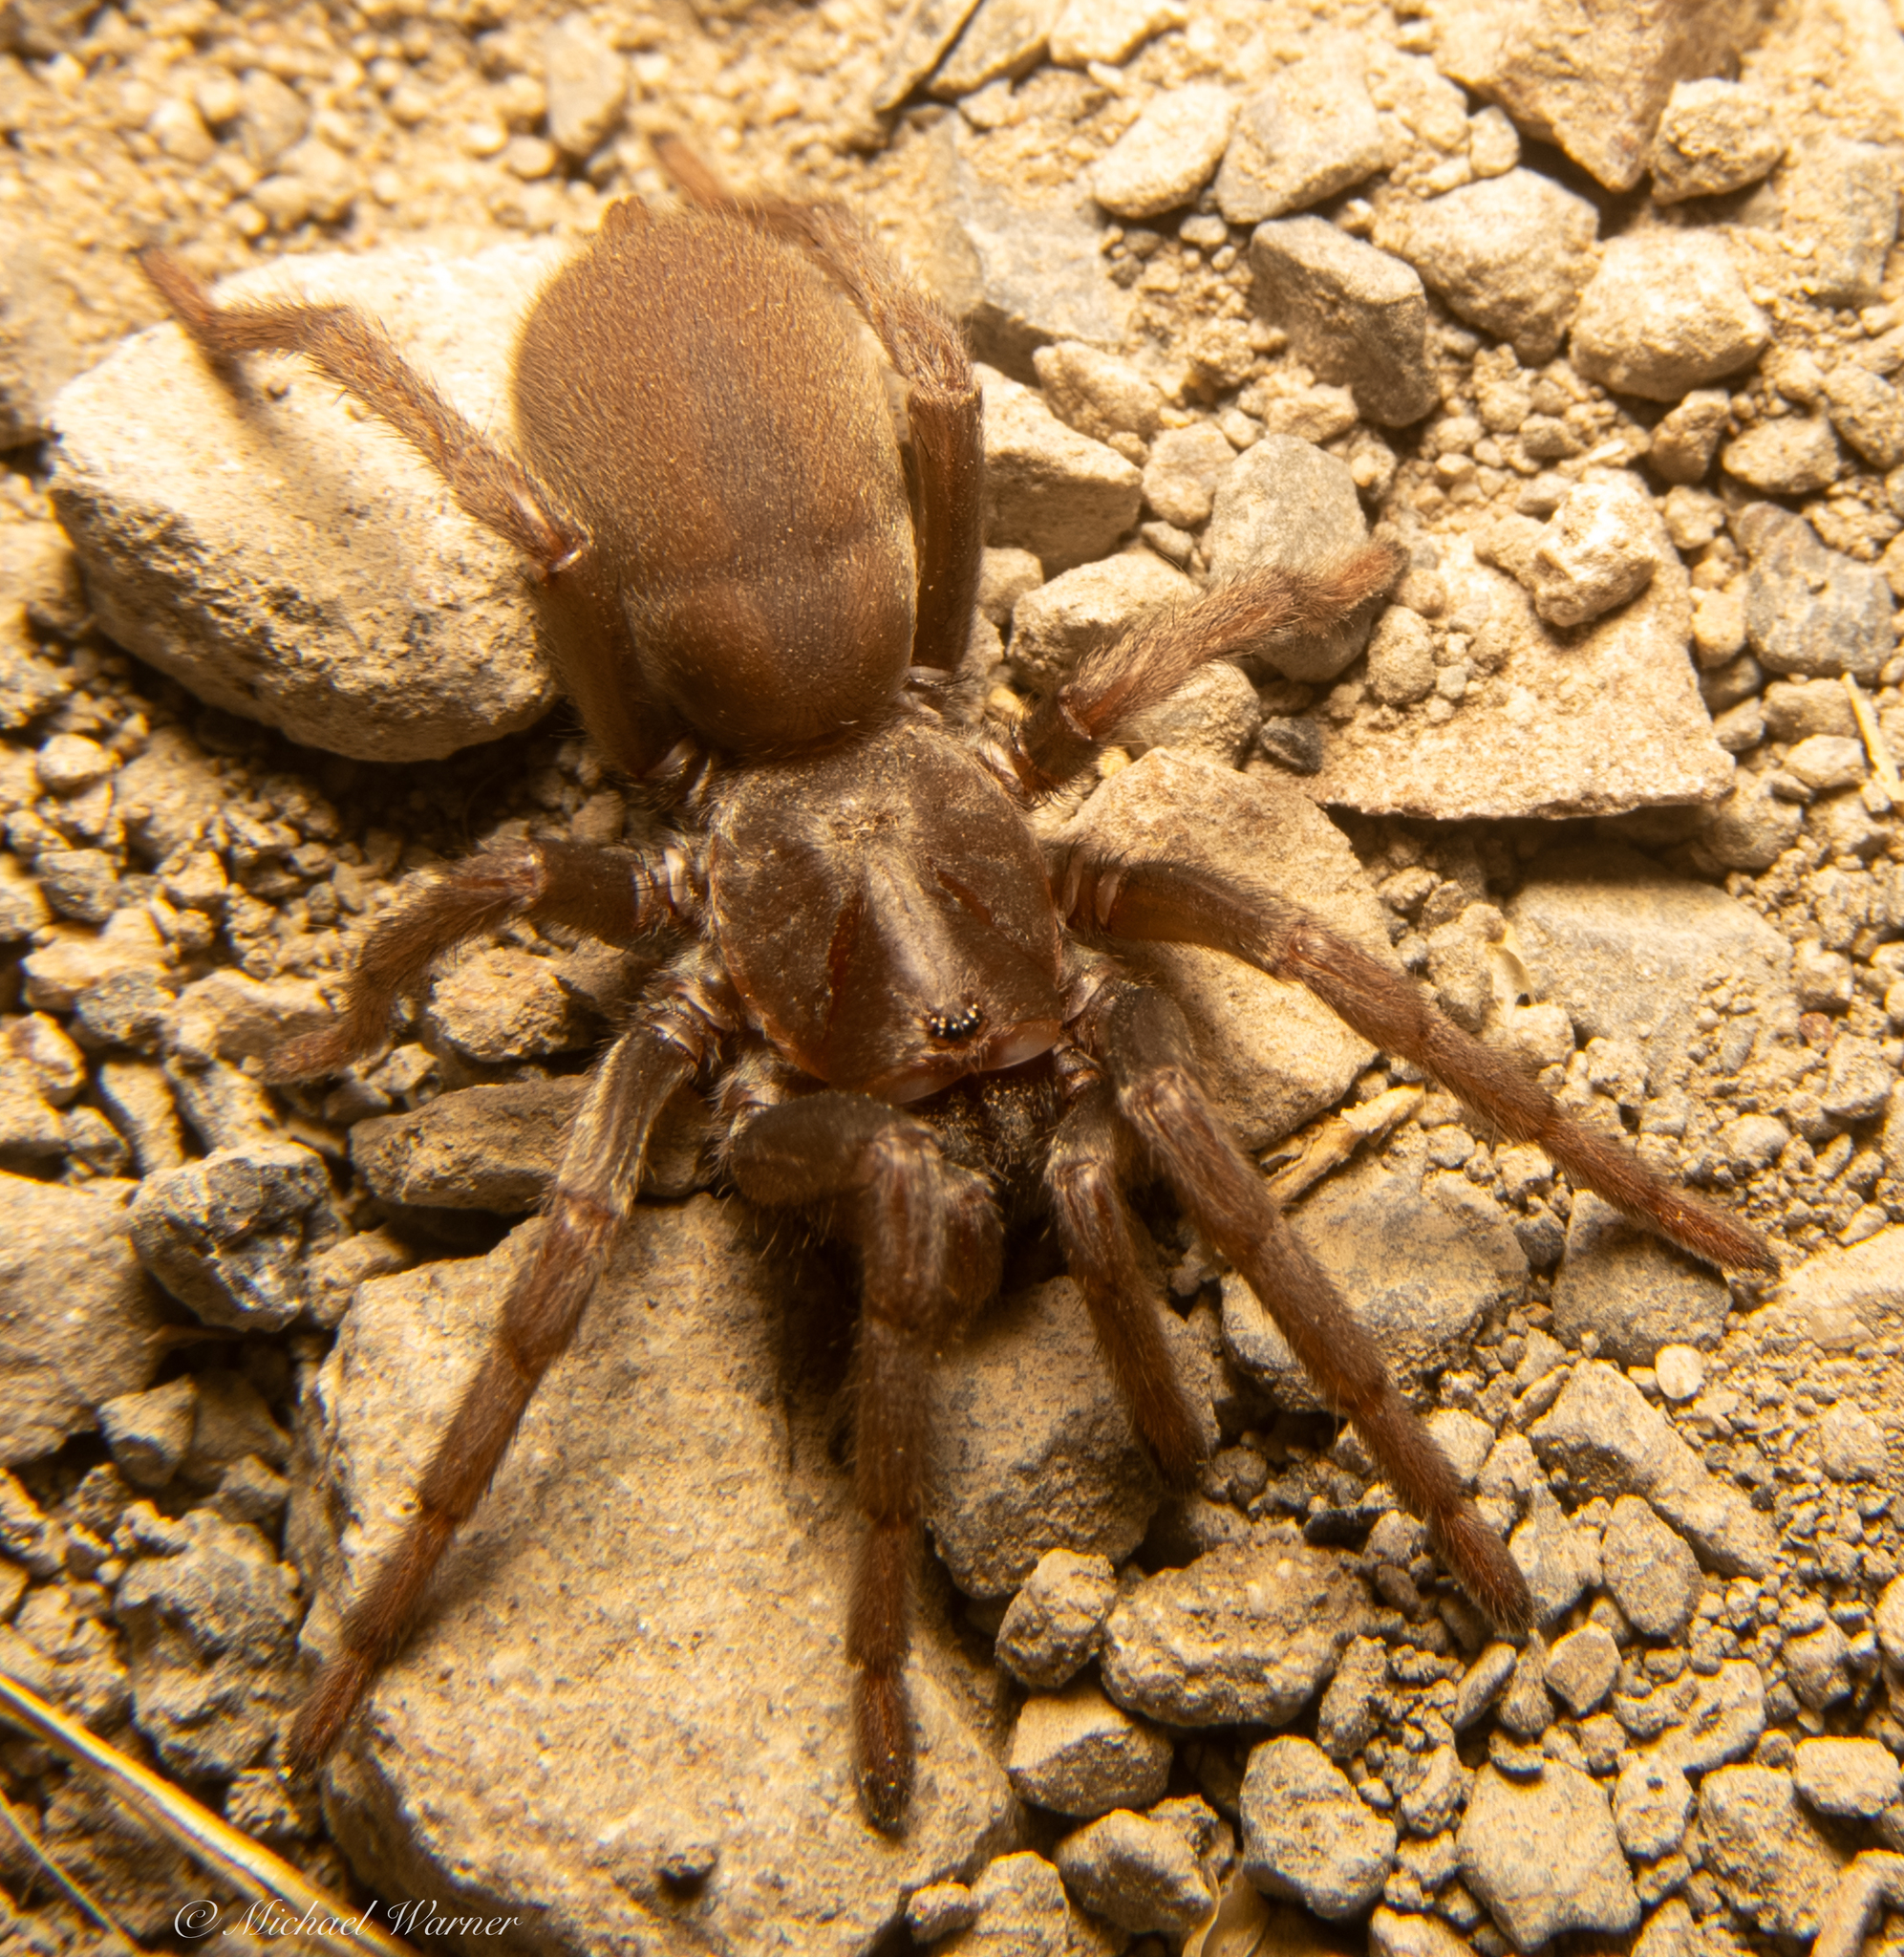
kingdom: Animalia
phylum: Arthropoda
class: Arachnida
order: Araneae
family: Nemesiidae
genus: Calisoga
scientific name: Calisoga longitarsis
